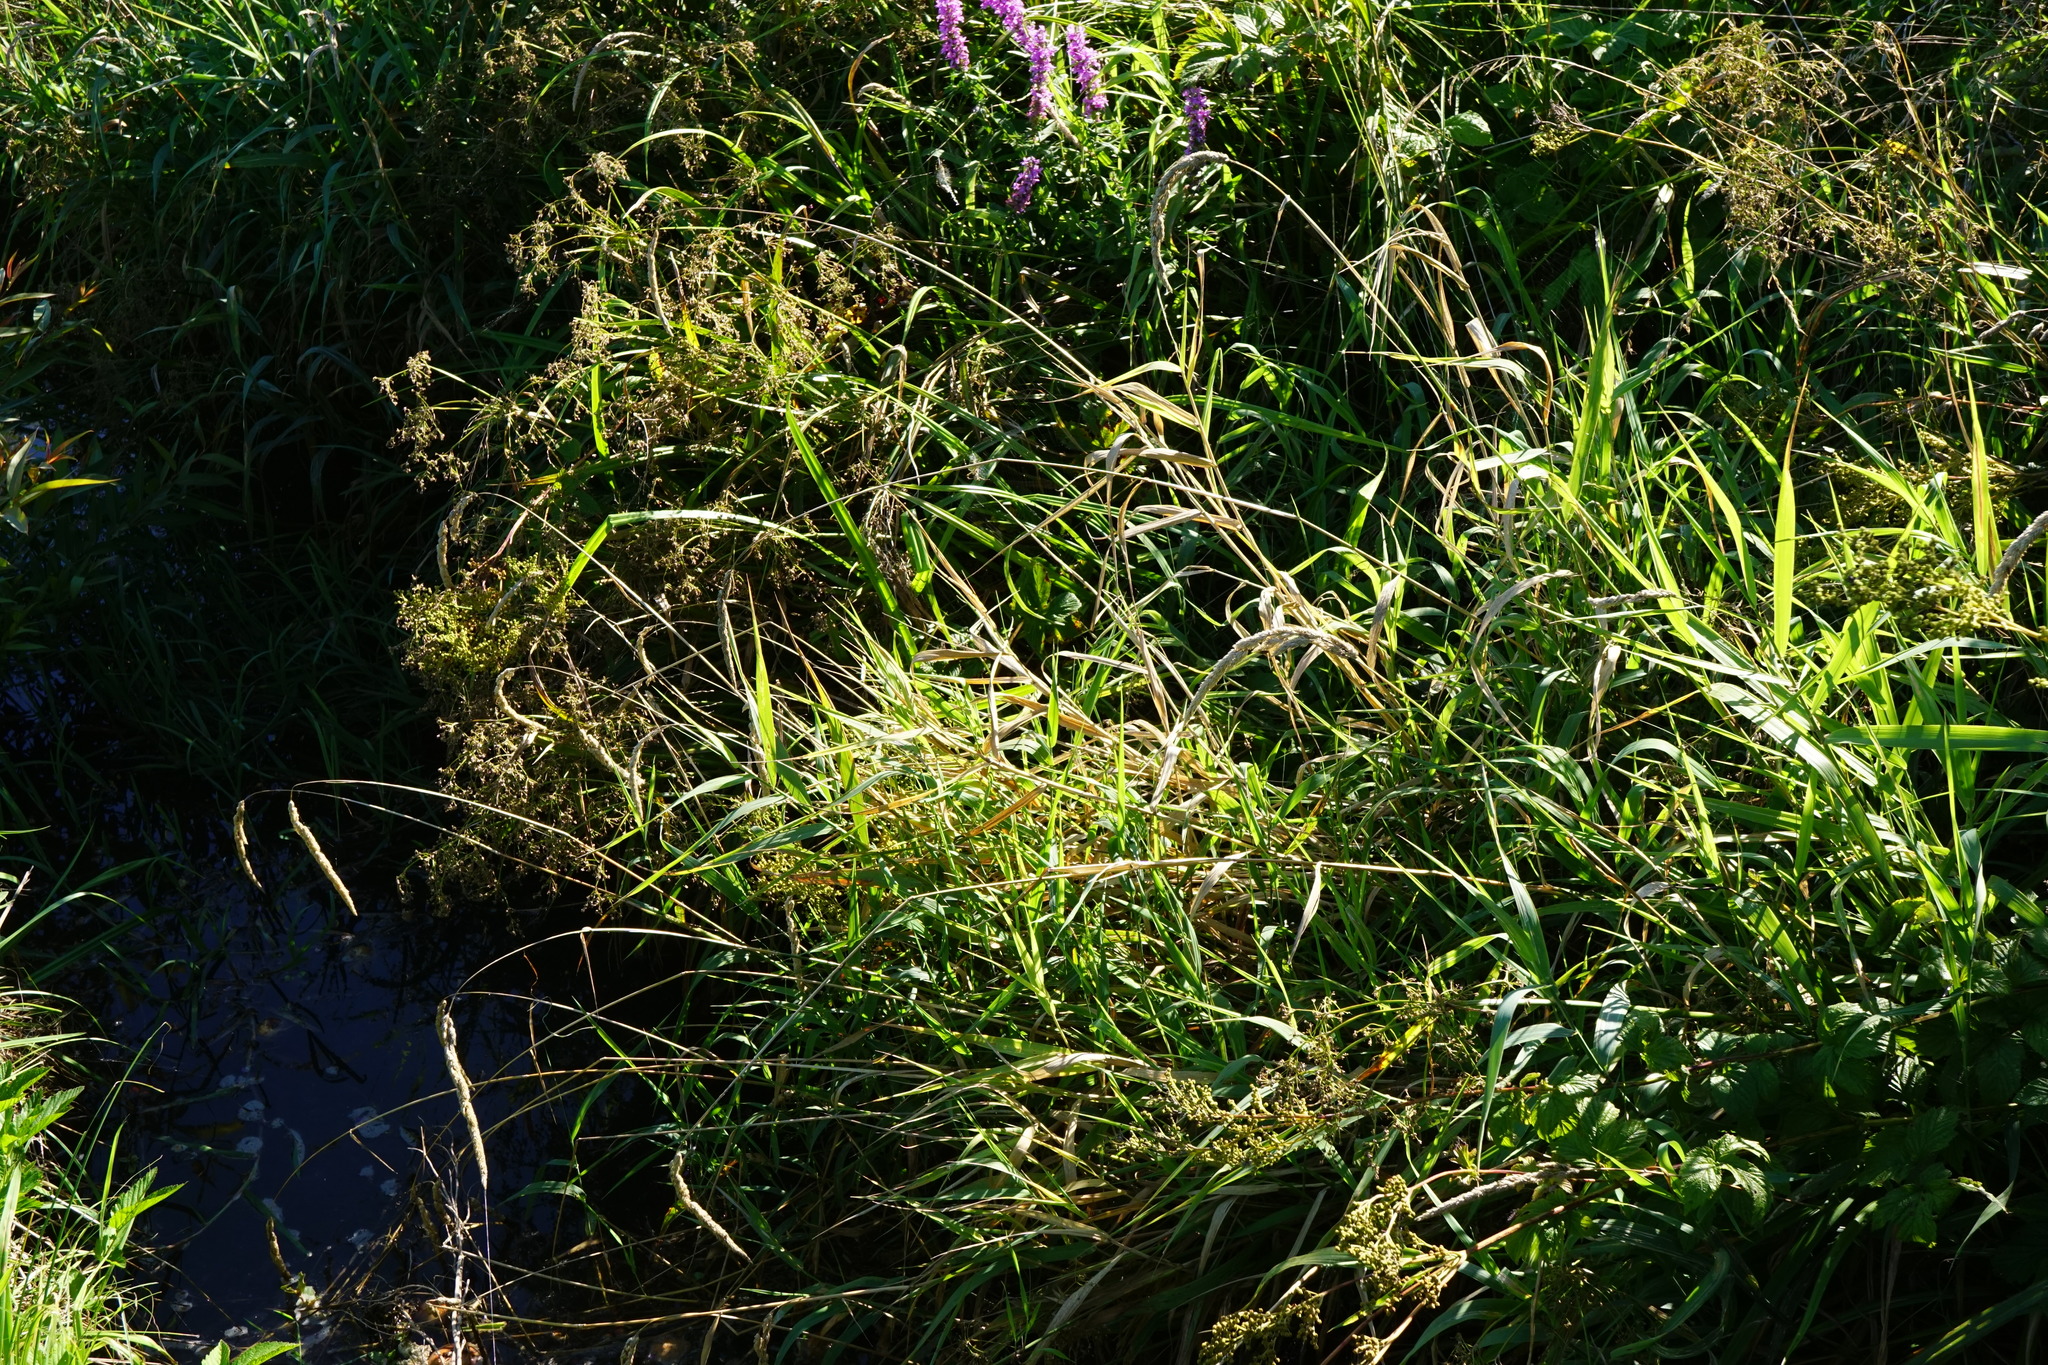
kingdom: Plantae
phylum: Tracheophyta
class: Liliopsida
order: Poales
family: Poaceae
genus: Phalaris
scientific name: Phalaris arundinacea
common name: Reed canary-grass
